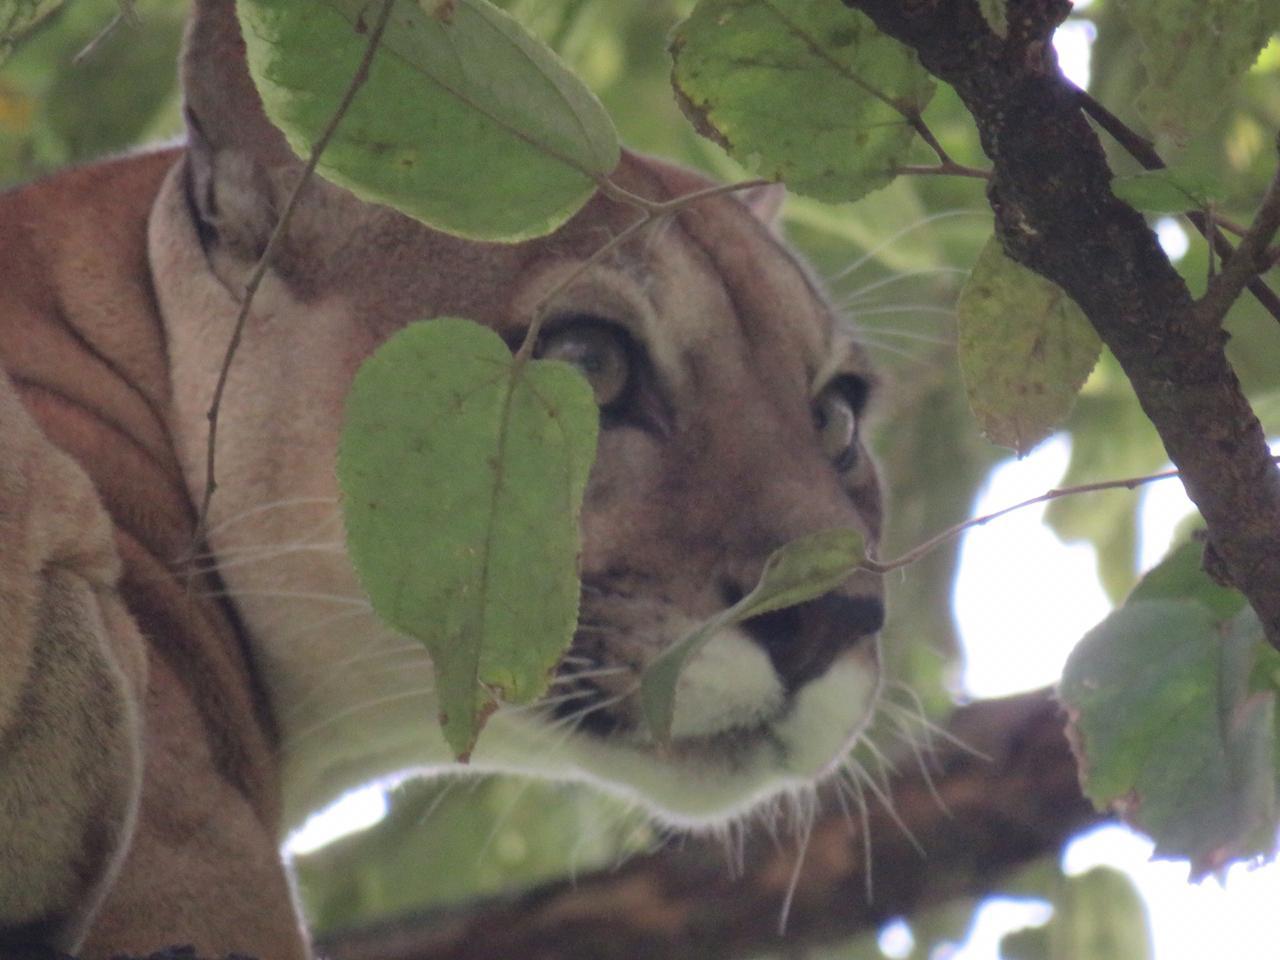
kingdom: Animalia
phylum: Chordata
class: Mammalia
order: Carnivora
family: Felidae
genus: Puma
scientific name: Puma concolor
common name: Puma
